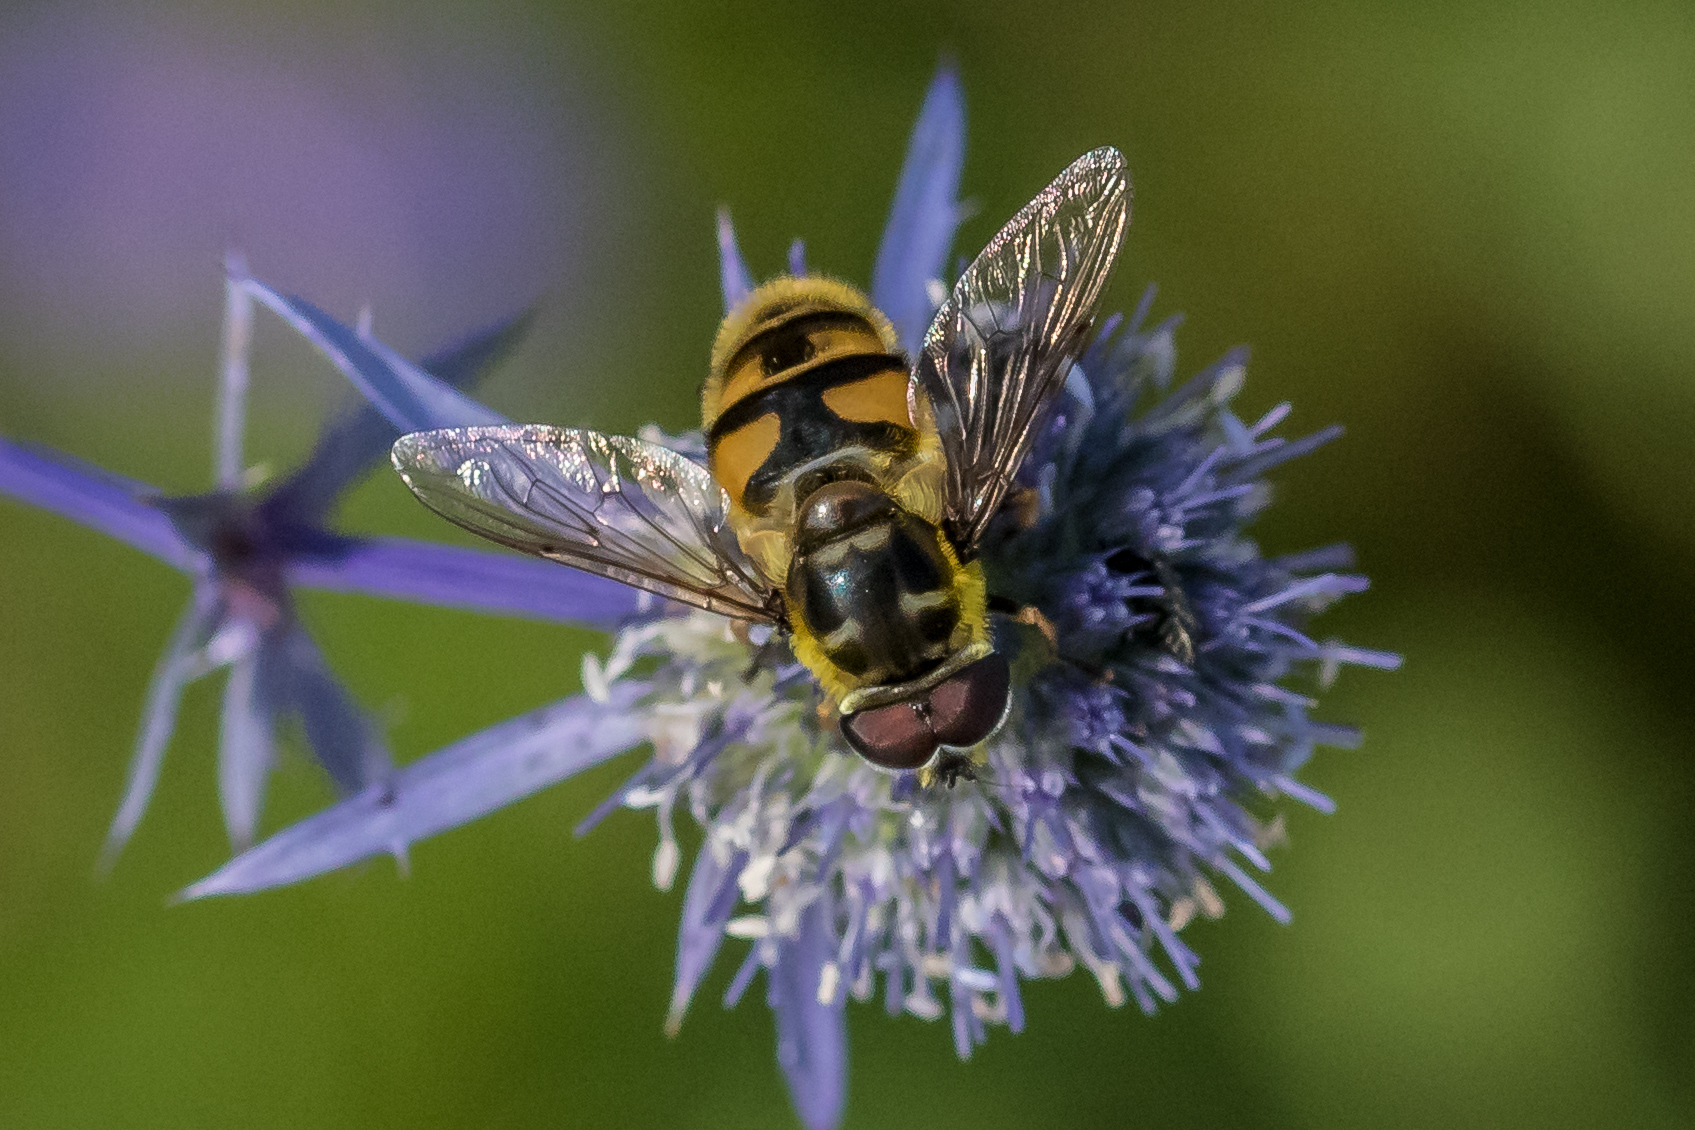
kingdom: Animalia
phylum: Arthropoda
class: Insecta
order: Diptera
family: Syrphidae
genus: Myathropa
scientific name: Myathropa florea
